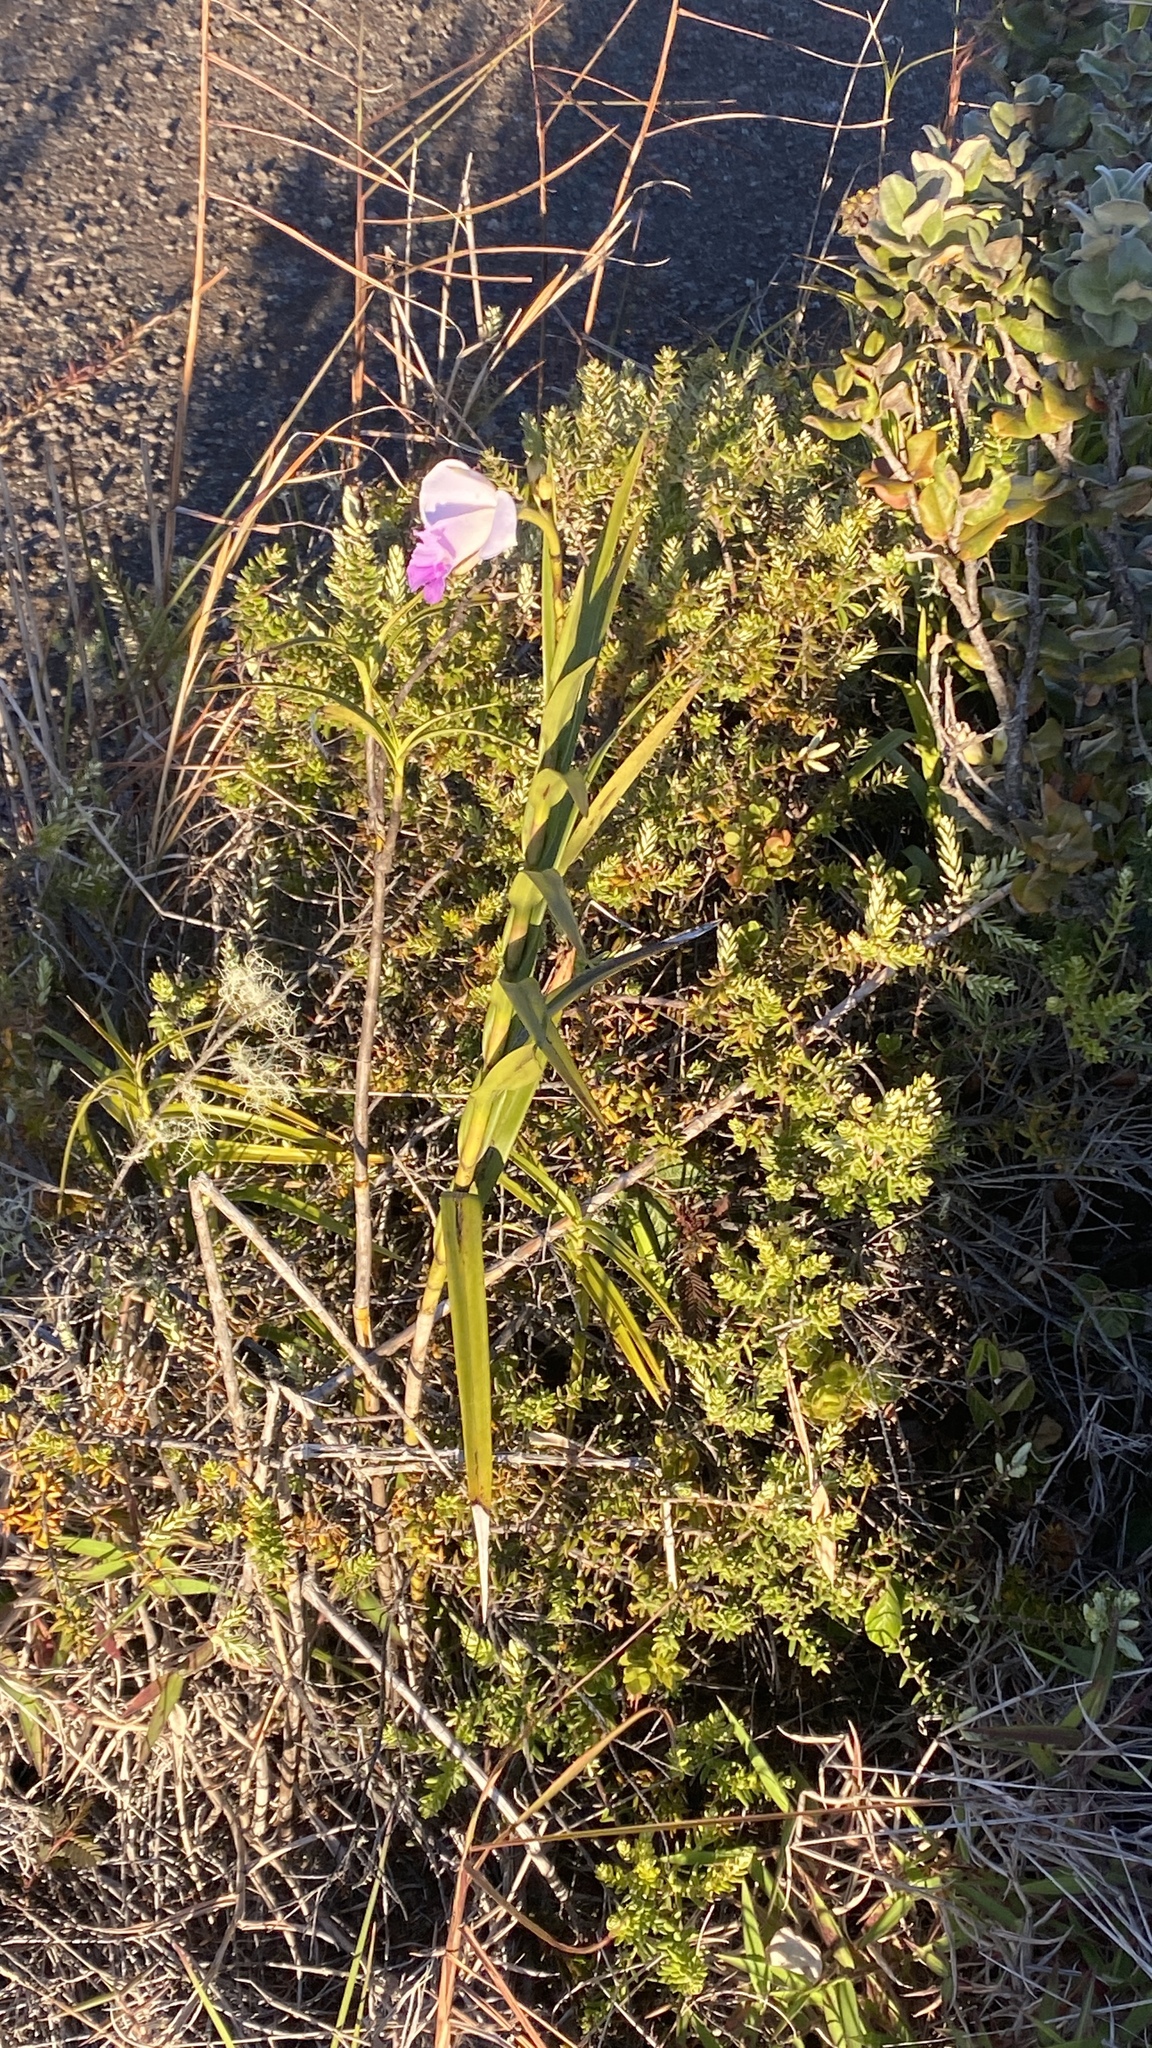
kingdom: Plantae
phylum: Tracheophyta
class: Liliopsida
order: Asparagales
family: Orchidaceae
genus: Arundina
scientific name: Arundina graminifolia
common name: Bamboo orchid
